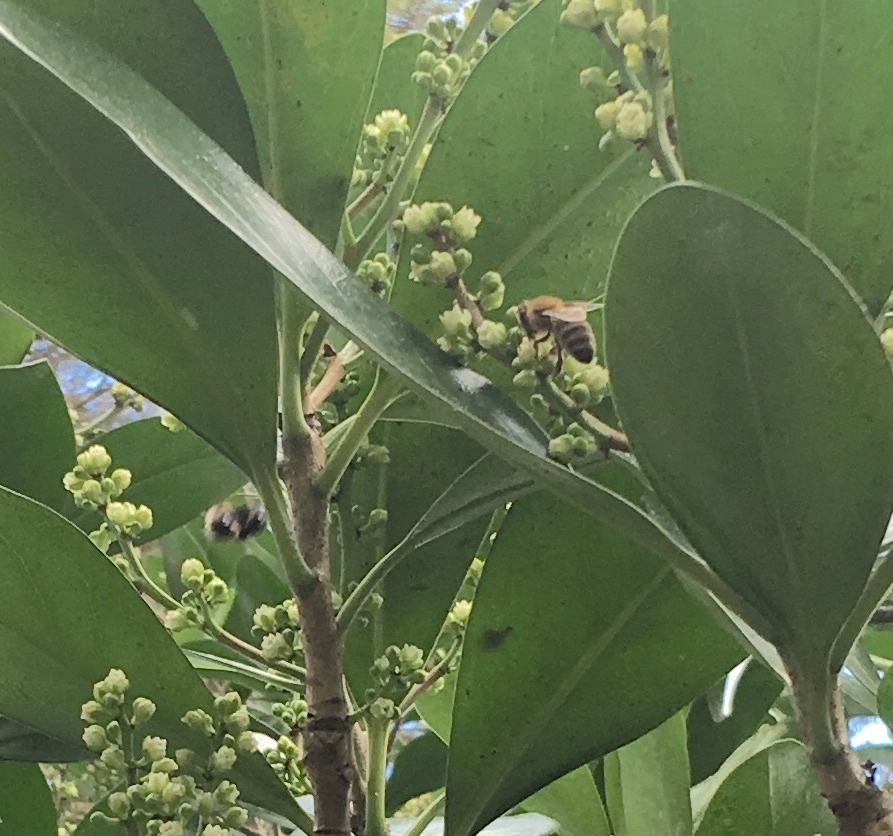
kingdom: Animalia
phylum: Arthropoda
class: Insecta
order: Hymenoptera
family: Apidae
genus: Apis
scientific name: Apis mellifera
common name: Honey bee
